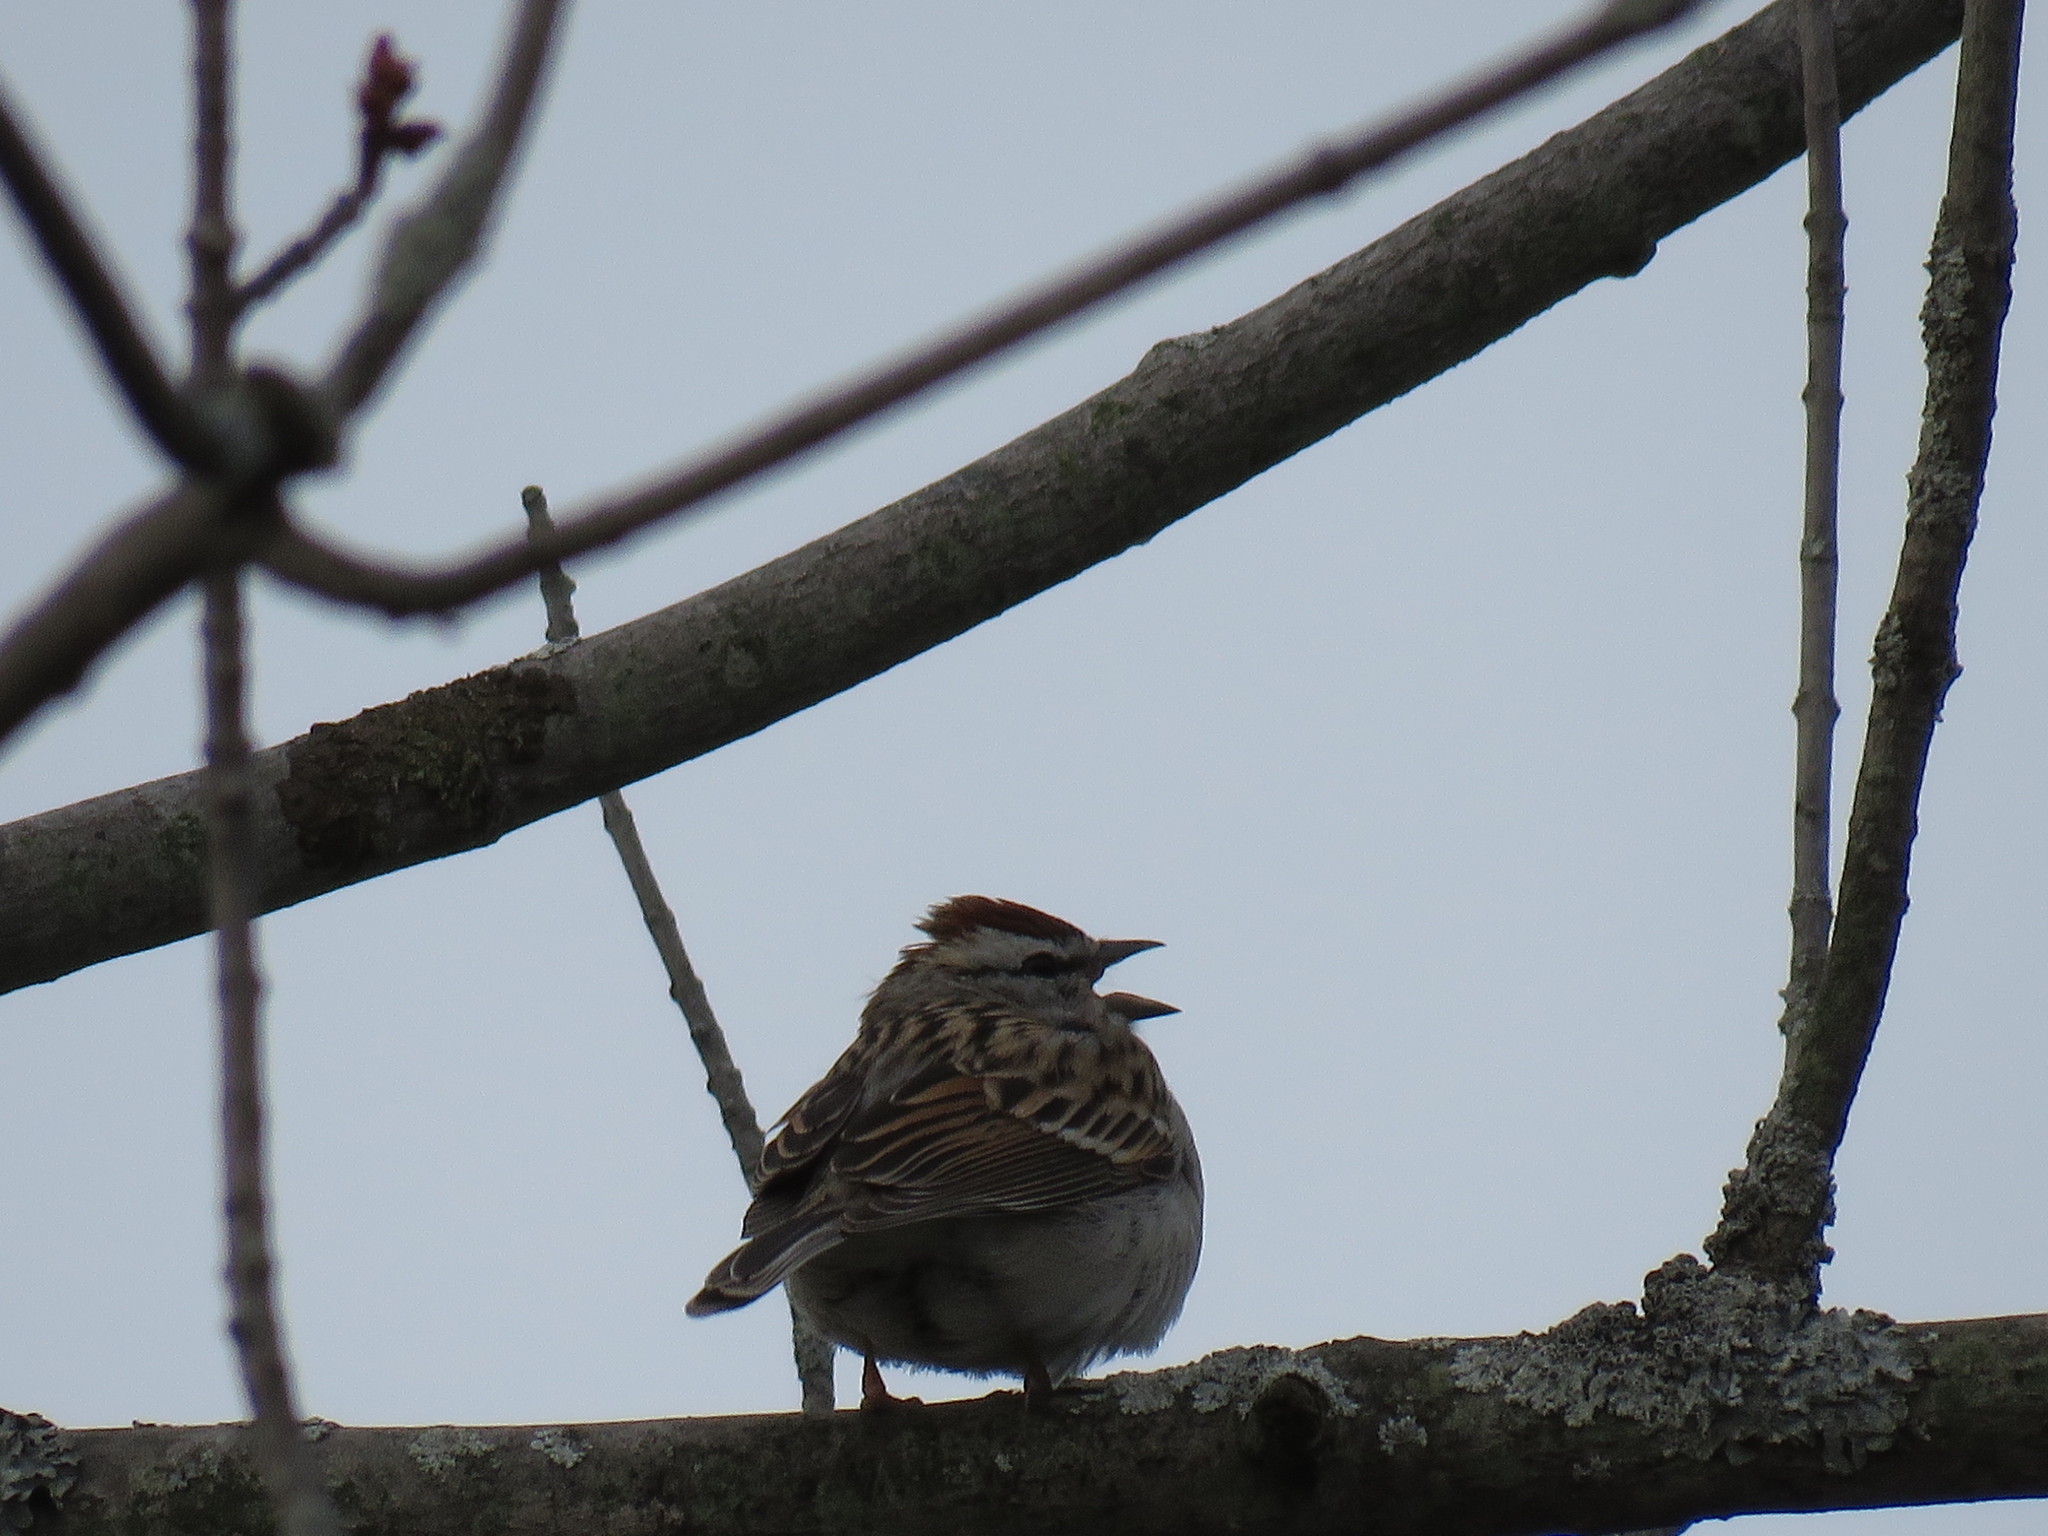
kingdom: Animalia
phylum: Chordata
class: Aves
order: Passeriformes
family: Passerellidae
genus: Spizella
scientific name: Spizella passerina
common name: Chipping sparrow
